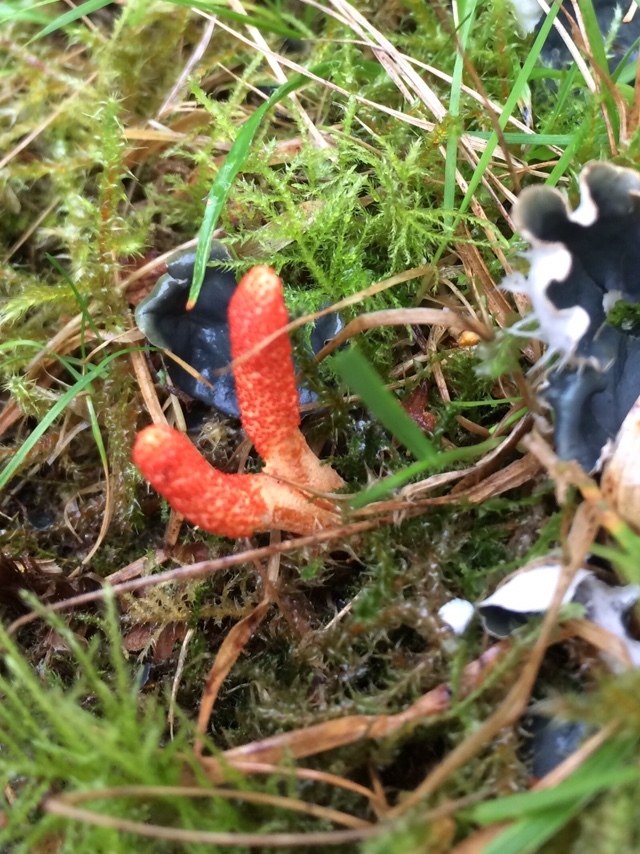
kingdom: Fungi
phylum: Ascomycota
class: Sordariomycetes
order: Hypocreales
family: Cordycipitaceae
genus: Cordyceps
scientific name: Cordyceps militaris
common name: Scarlet caterpillar fungus
